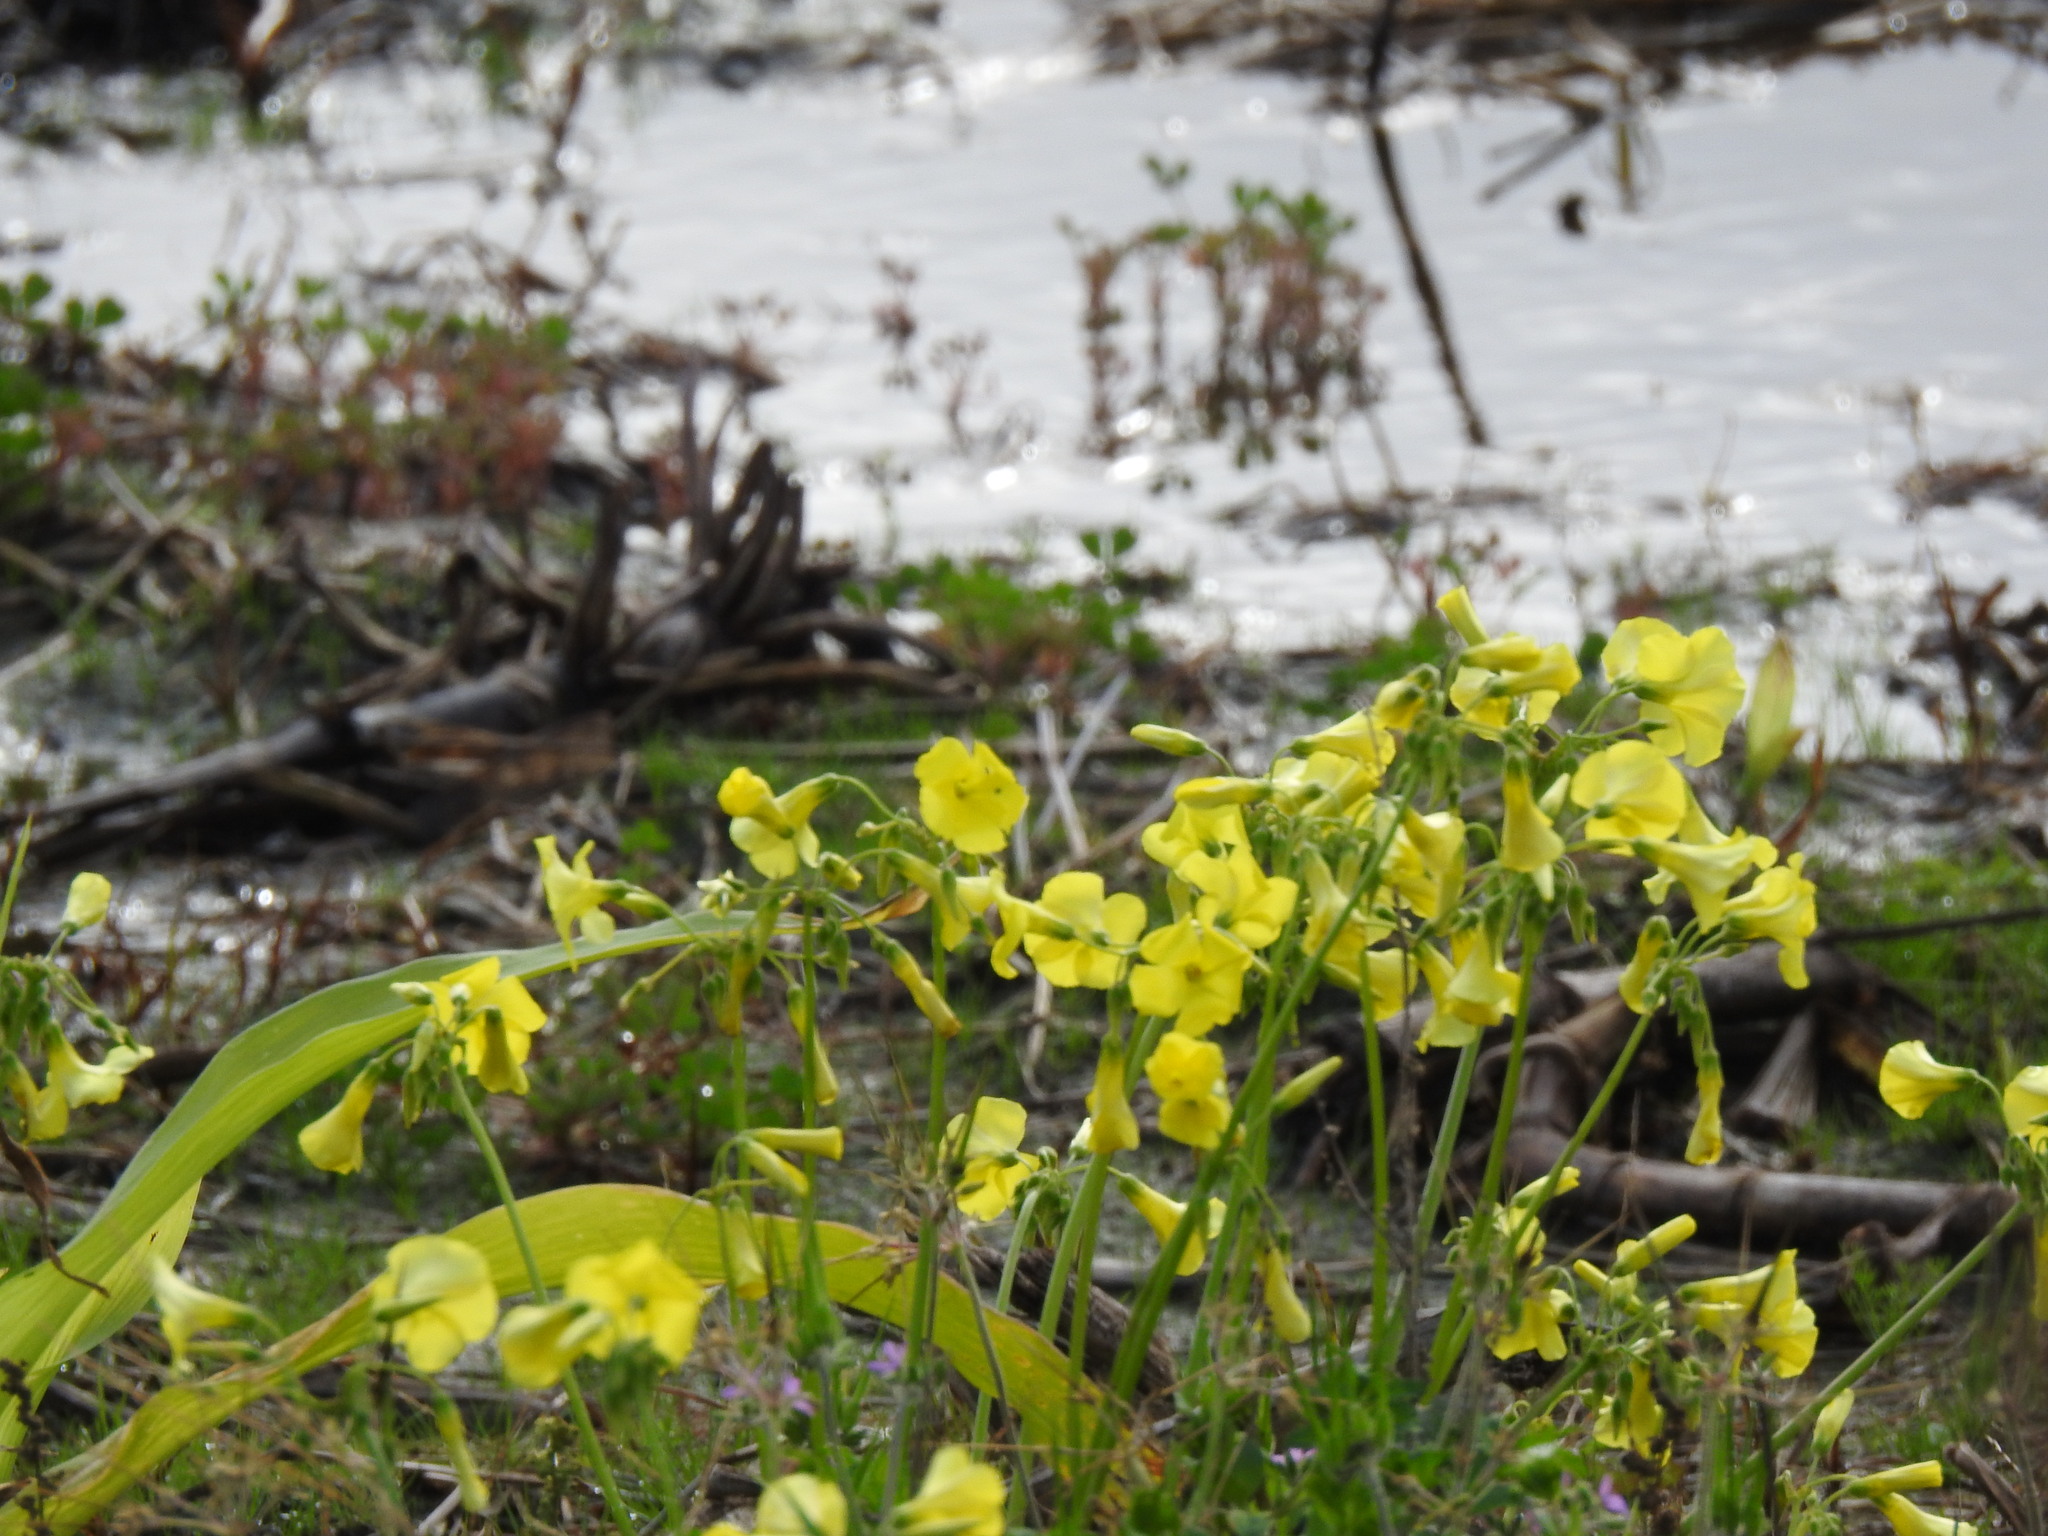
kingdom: Plantae
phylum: Tracheophyta
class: Magnoliopsida
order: Oxalidales
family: Oxalidaceae
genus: Oxalis
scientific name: Oxalis pes-caprae
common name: Bermuda-buttercup
